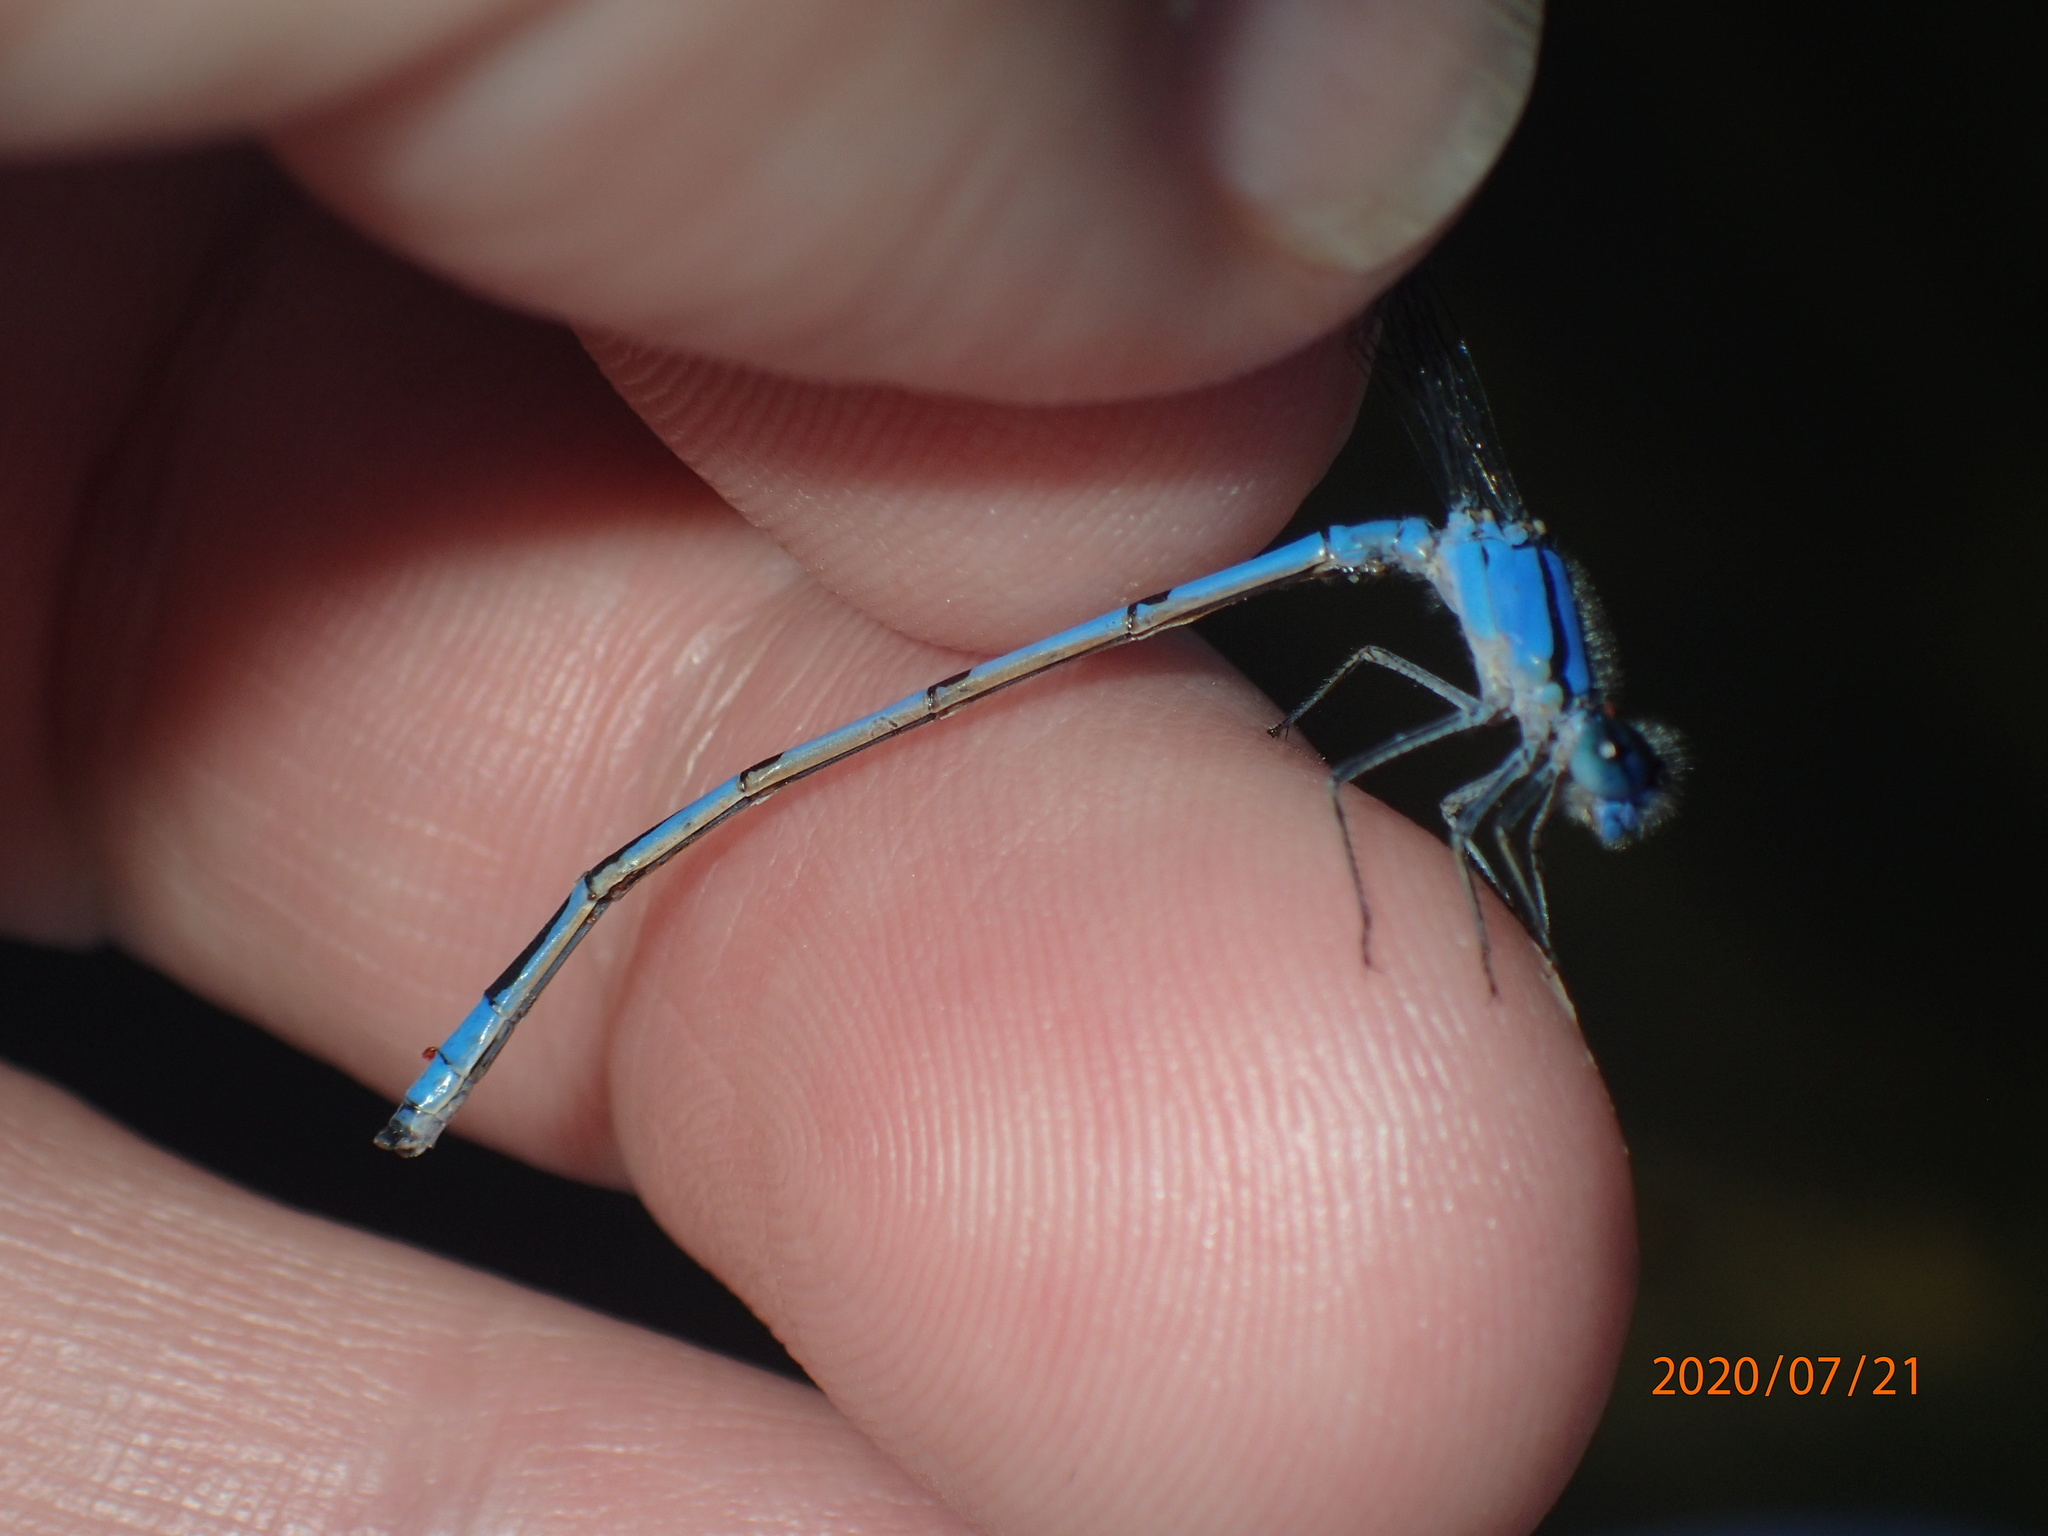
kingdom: Animalia
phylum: Arthropoda
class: Insecta
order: Odonata
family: Coenagrionidae
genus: Enallagma
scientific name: Enallagma civile
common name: Damselfly
